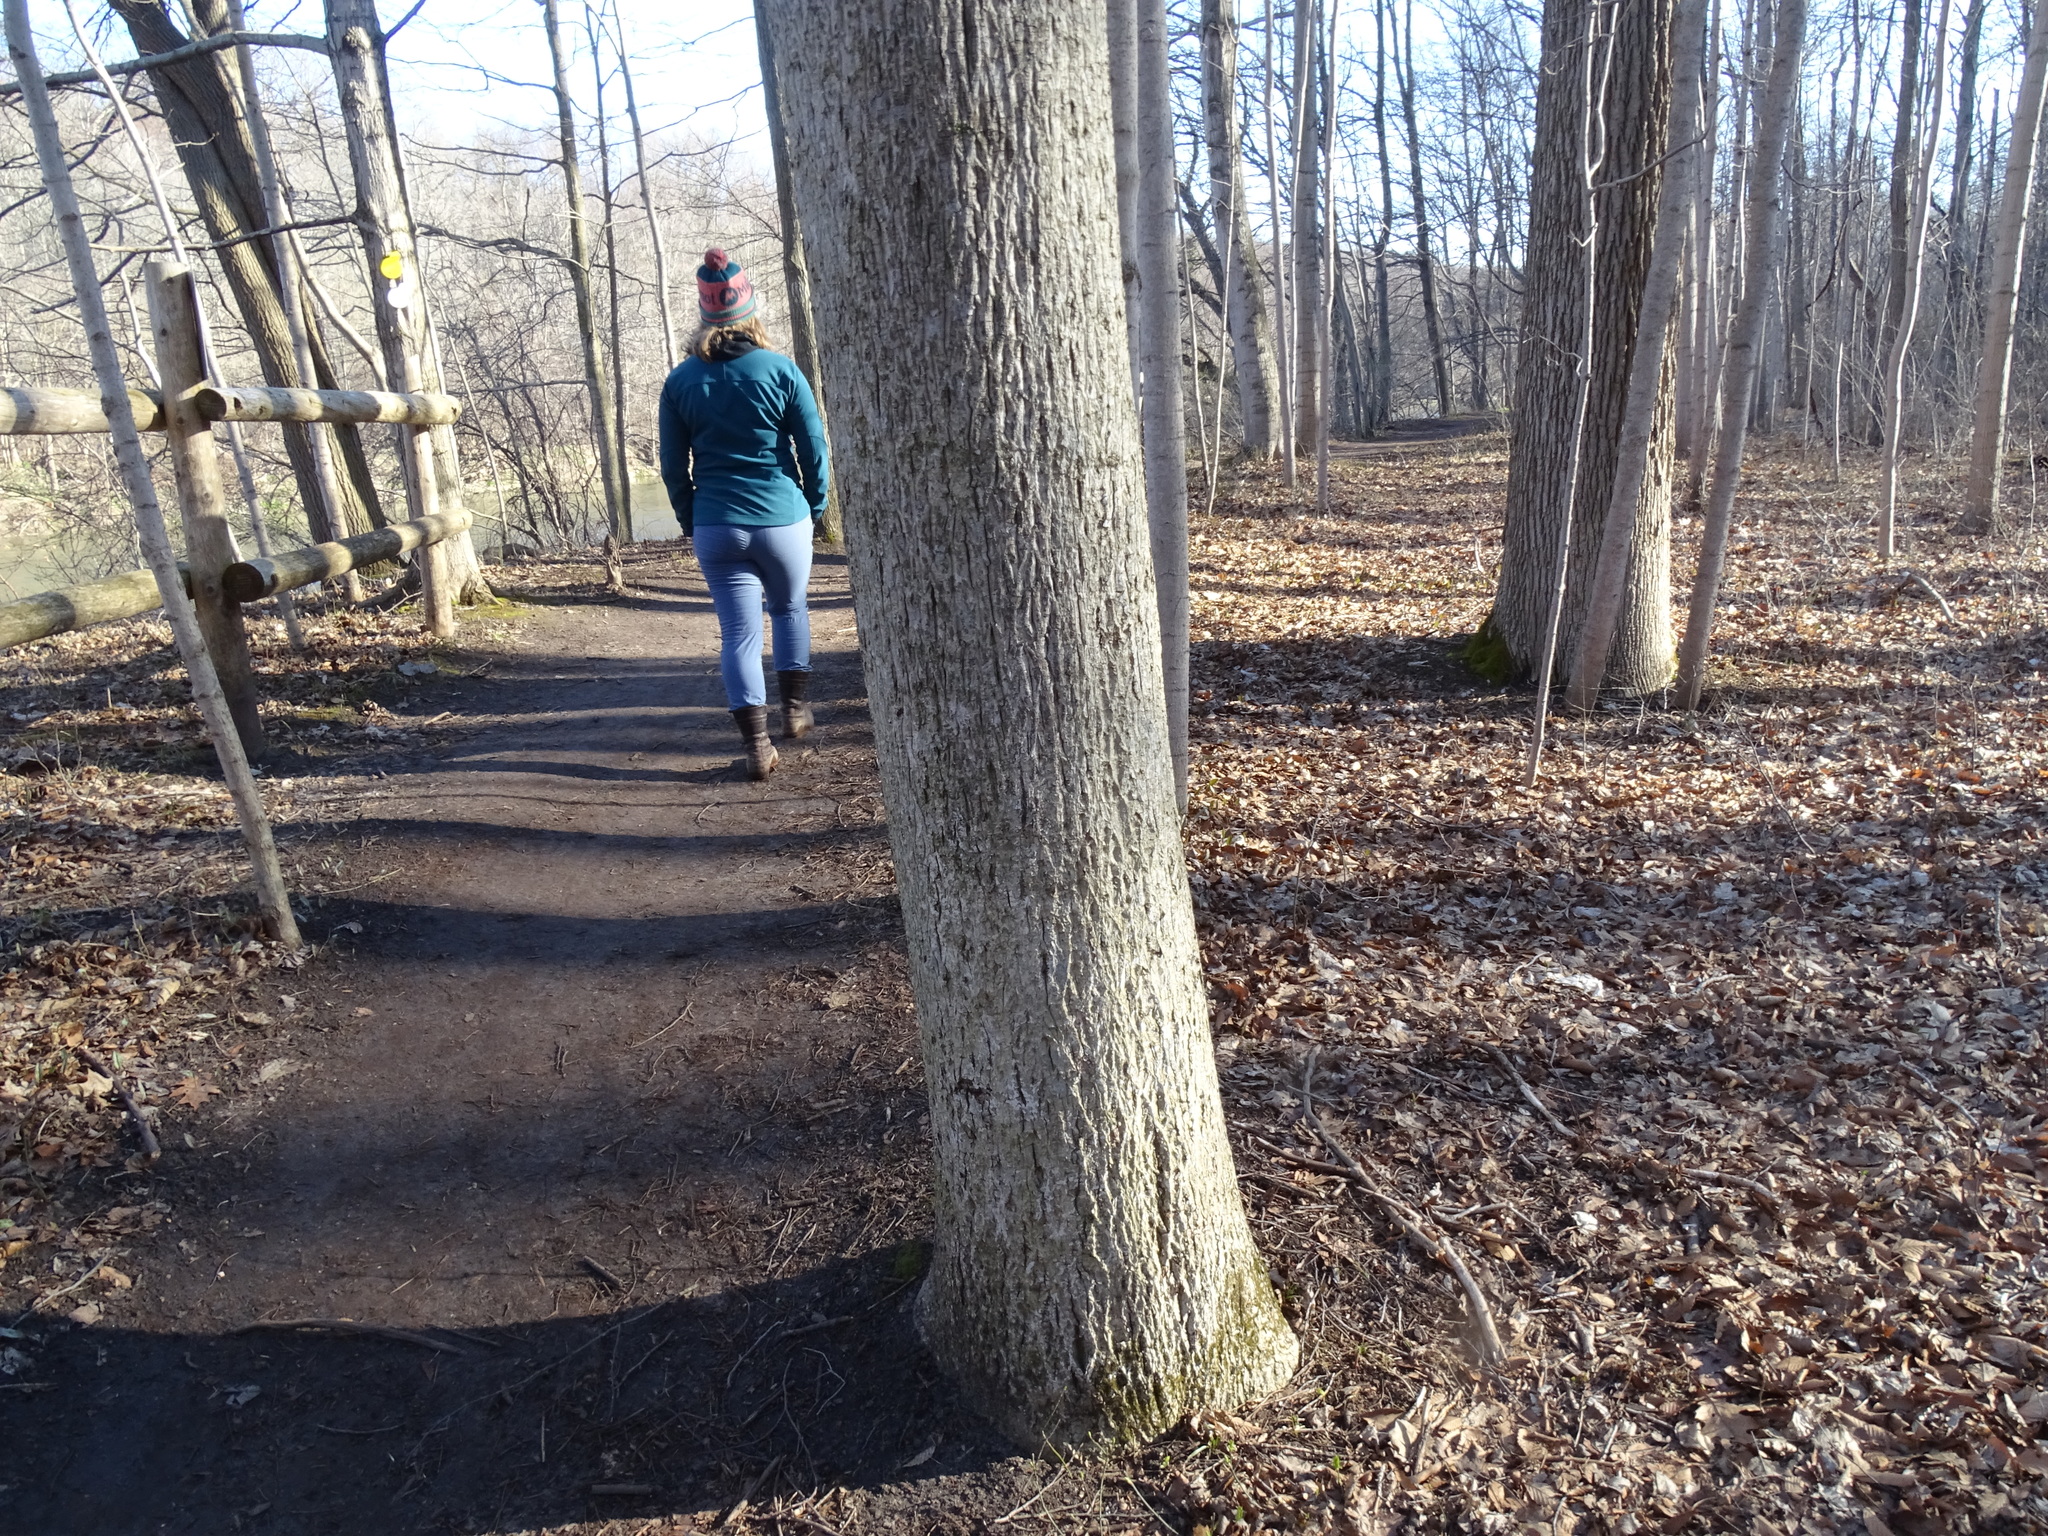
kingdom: Plantae
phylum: Tracheophyta
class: Magnoliopsida
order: Fagales
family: Juglandaceae
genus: Carya
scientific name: Carya cordiformis
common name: Bitternut hickory
